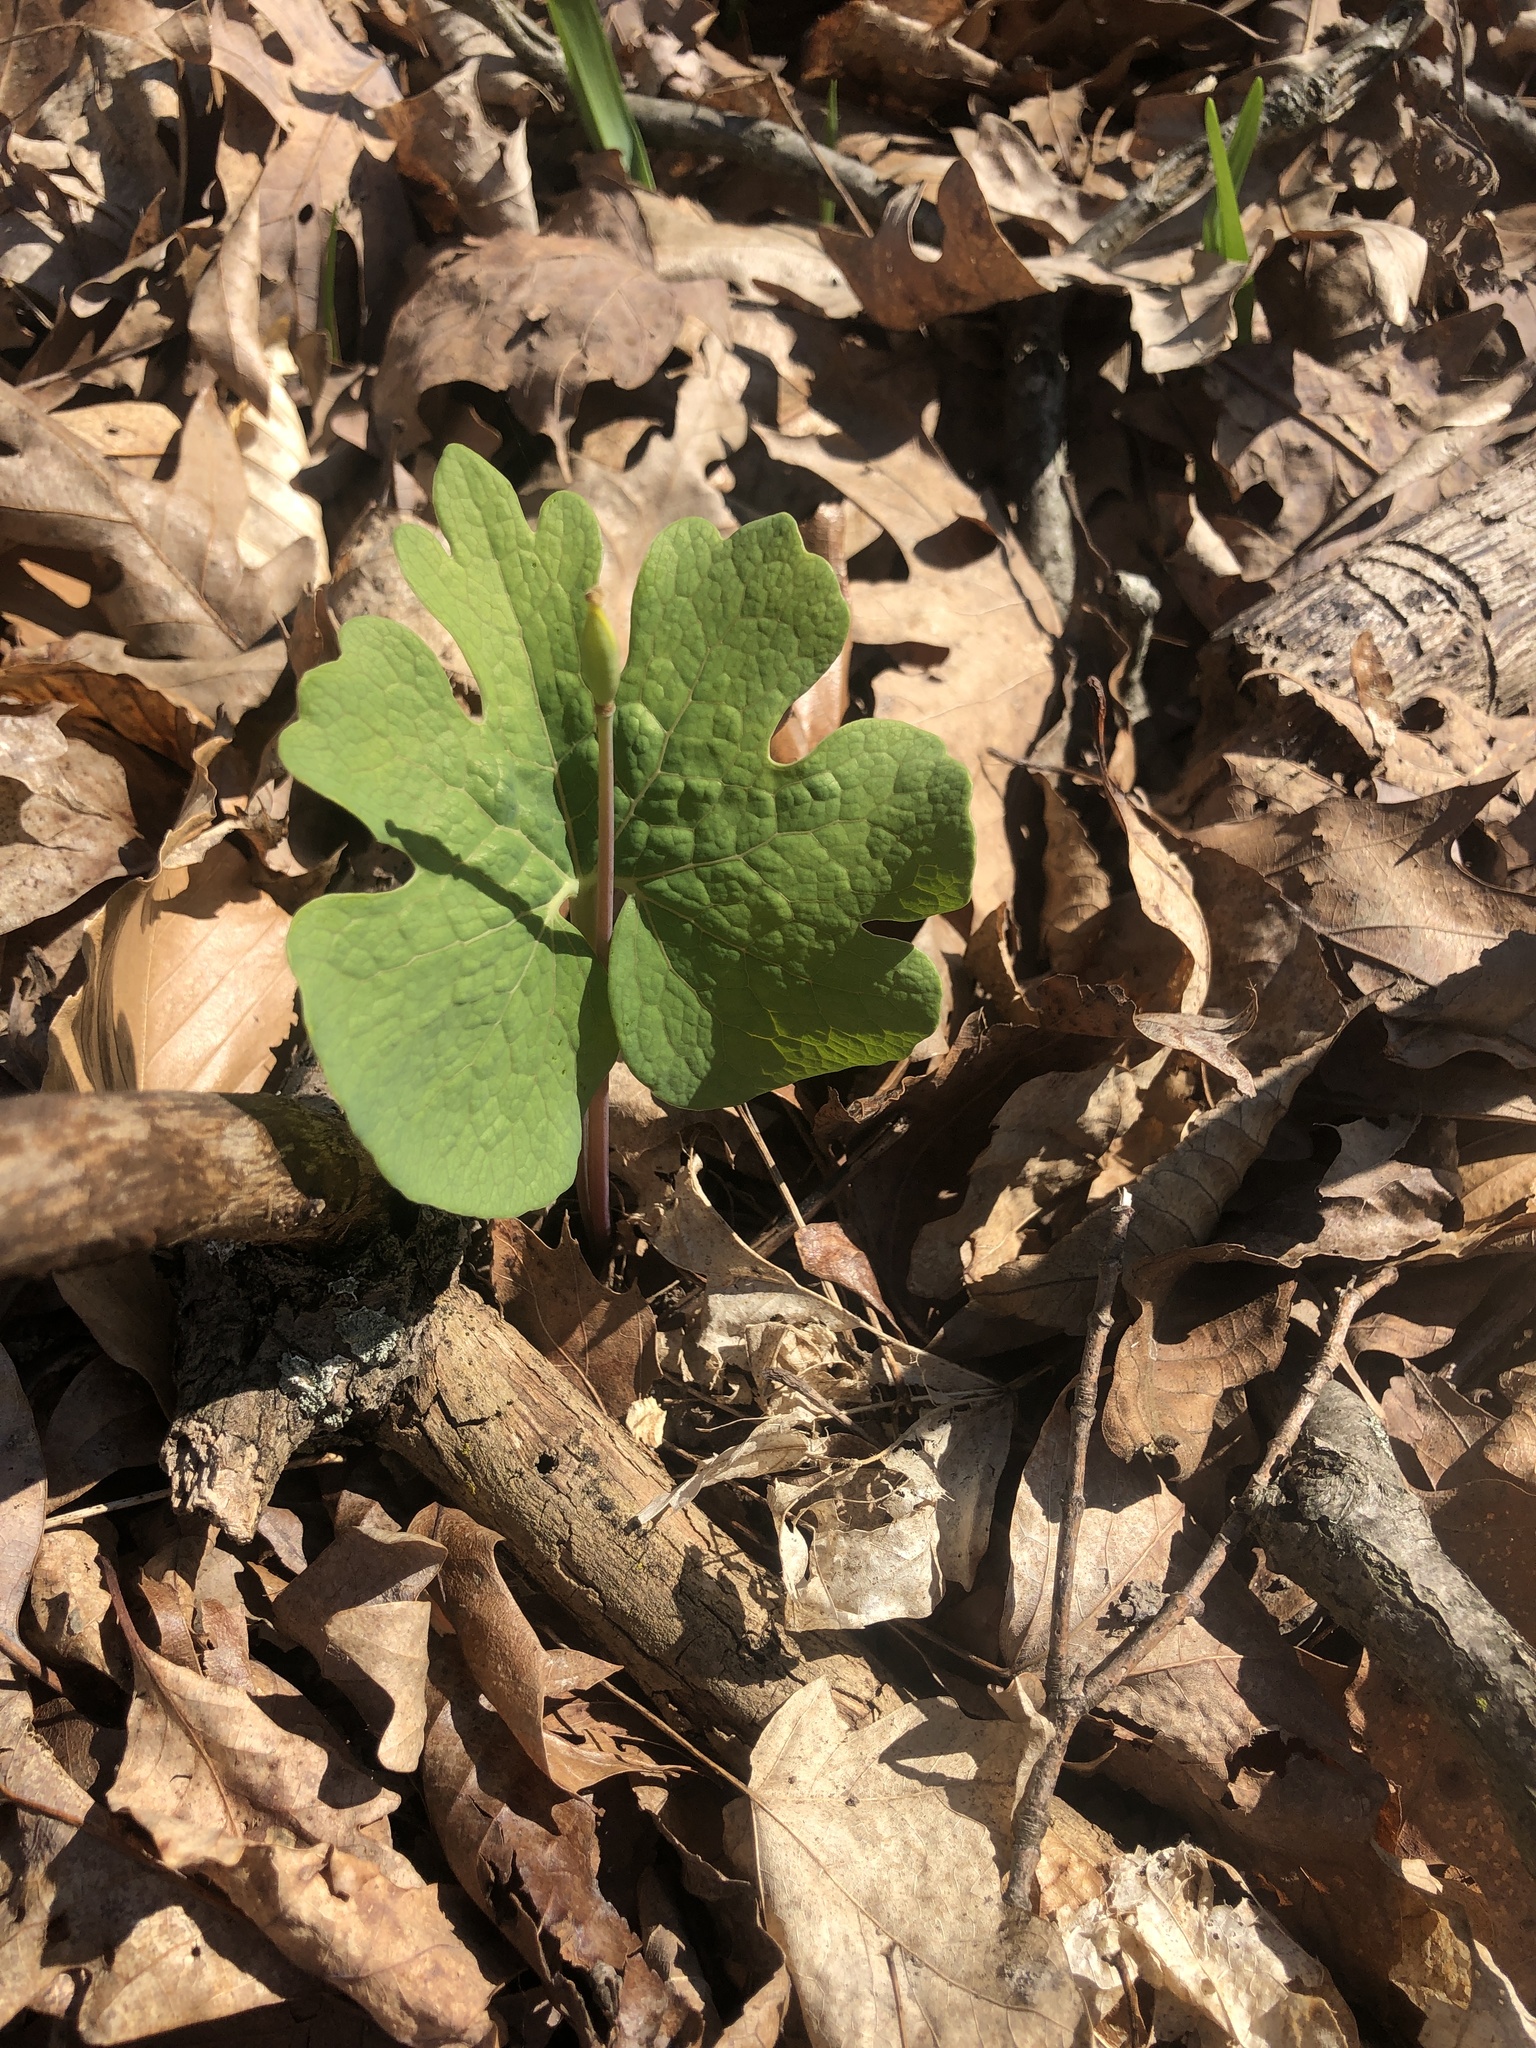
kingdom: Plantae
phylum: Tracheophyta
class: Magnoliopsida
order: Ranunculales
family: Papaveraceae
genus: Sanguinaria
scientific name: Sanguinaria canadensis
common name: Bloodroot
